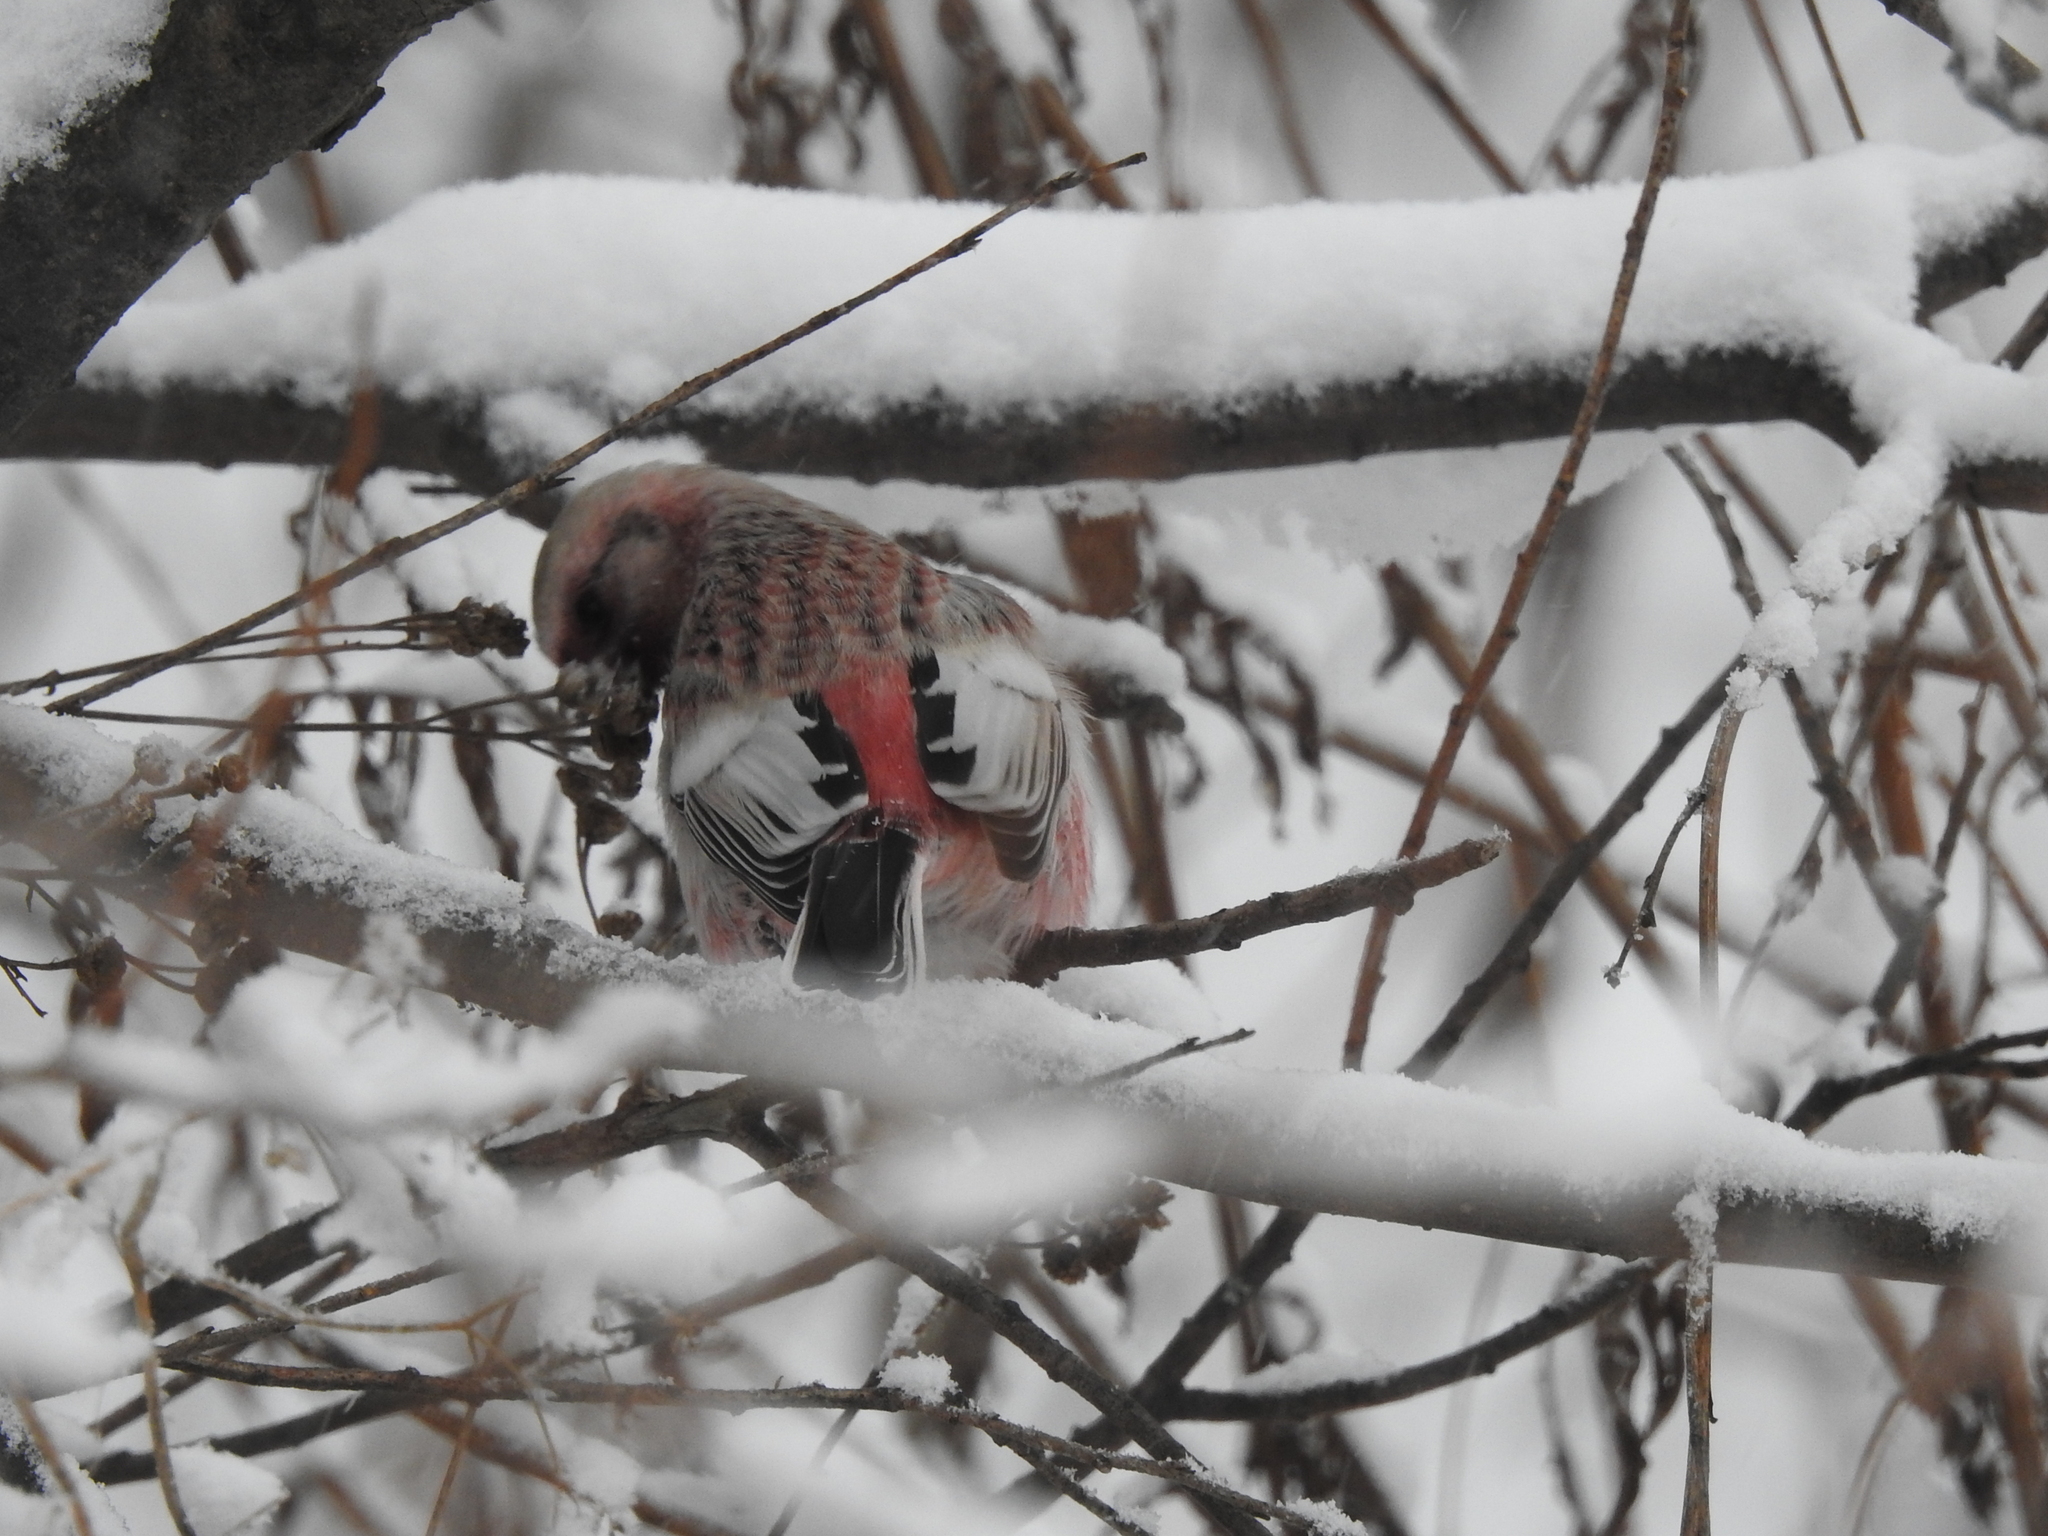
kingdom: Animalia
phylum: Chordata
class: Aves
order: Passeriformes
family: Fringillidae
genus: Carpodacus
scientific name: Carpodacus sibiricus
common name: Long-tailed rosefinch
